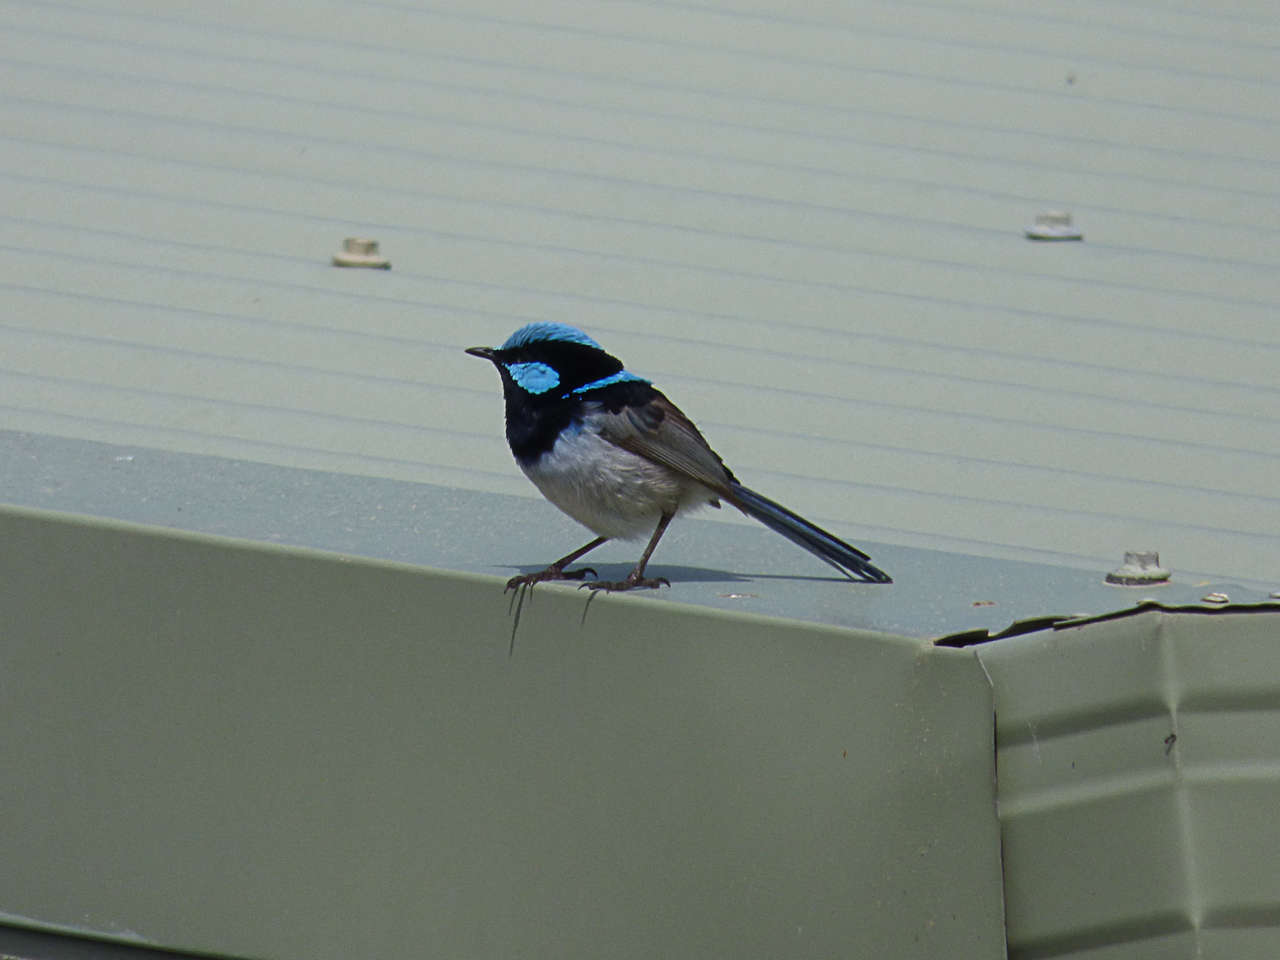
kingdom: Animalia
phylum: Chordata
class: Aves
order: Passeriformes
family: Maluridae
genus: Malurus
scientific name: Malurus cyaneus
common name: Superb fairywren
